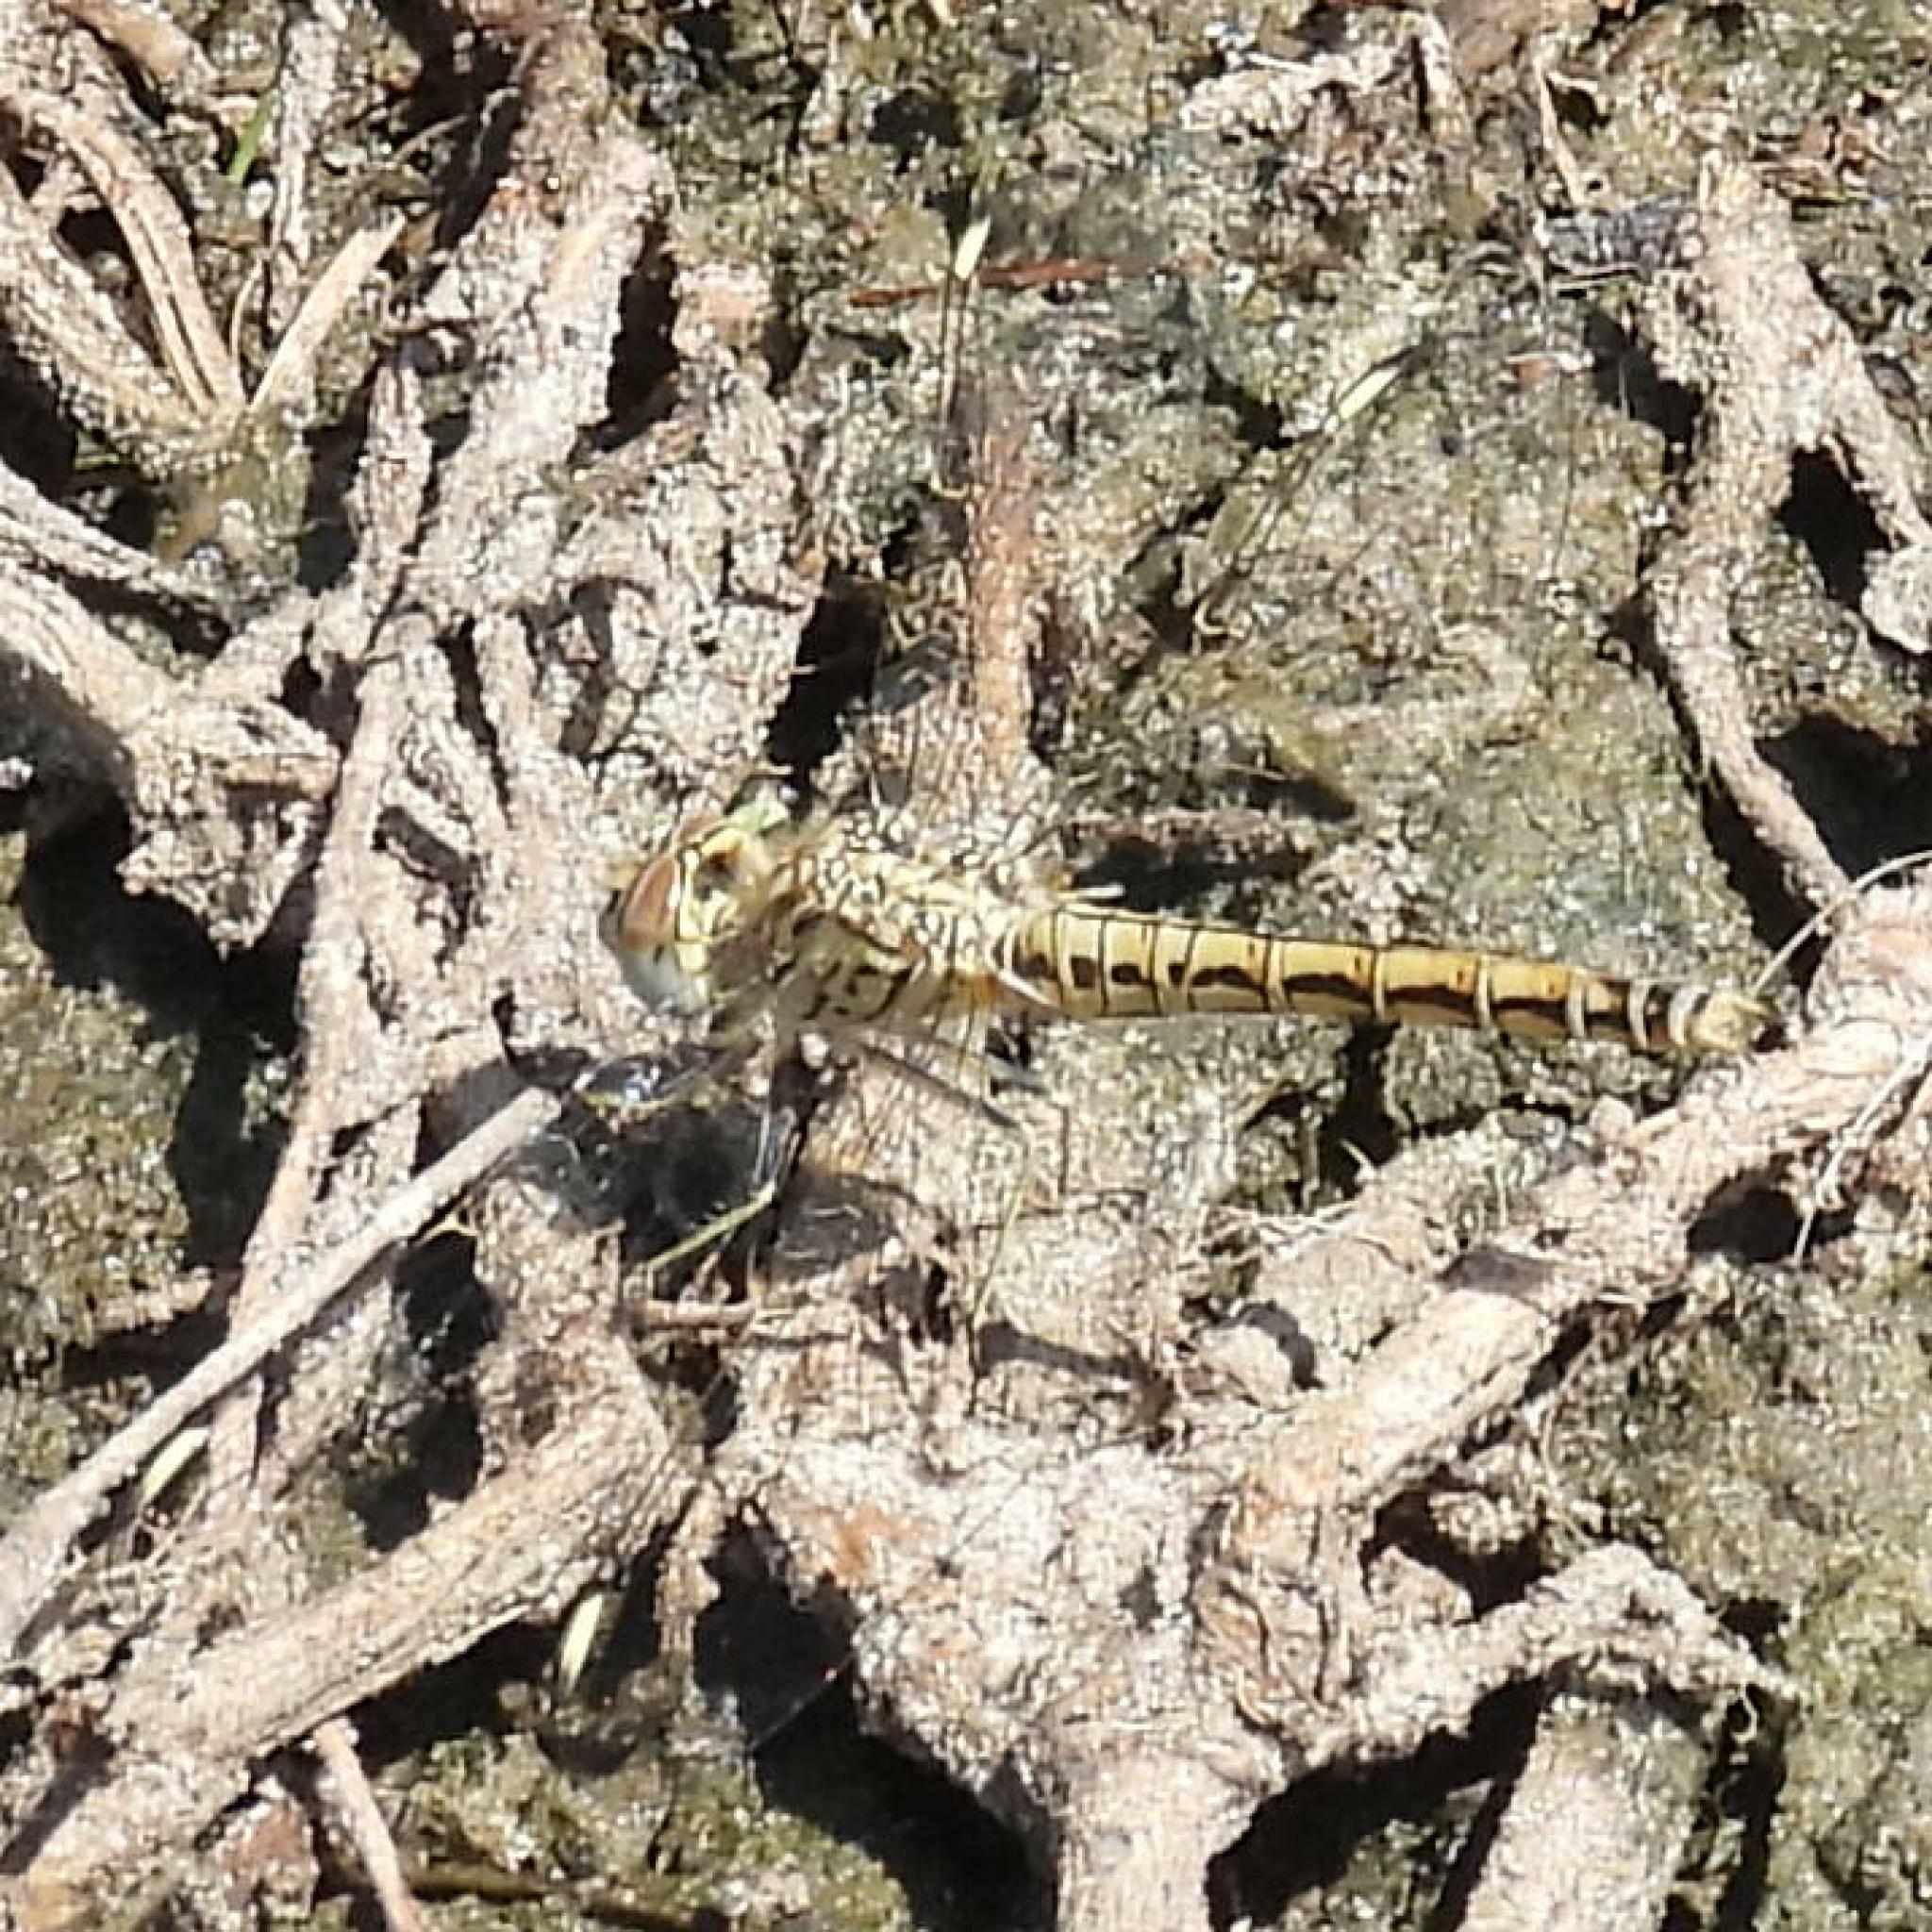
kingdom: Animalia
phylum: Arthropoda
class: Insecta
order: Odonata
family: Libellulidae
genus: Brachythemis
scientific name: Brachythemis leucosticta
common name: Banded groundling
